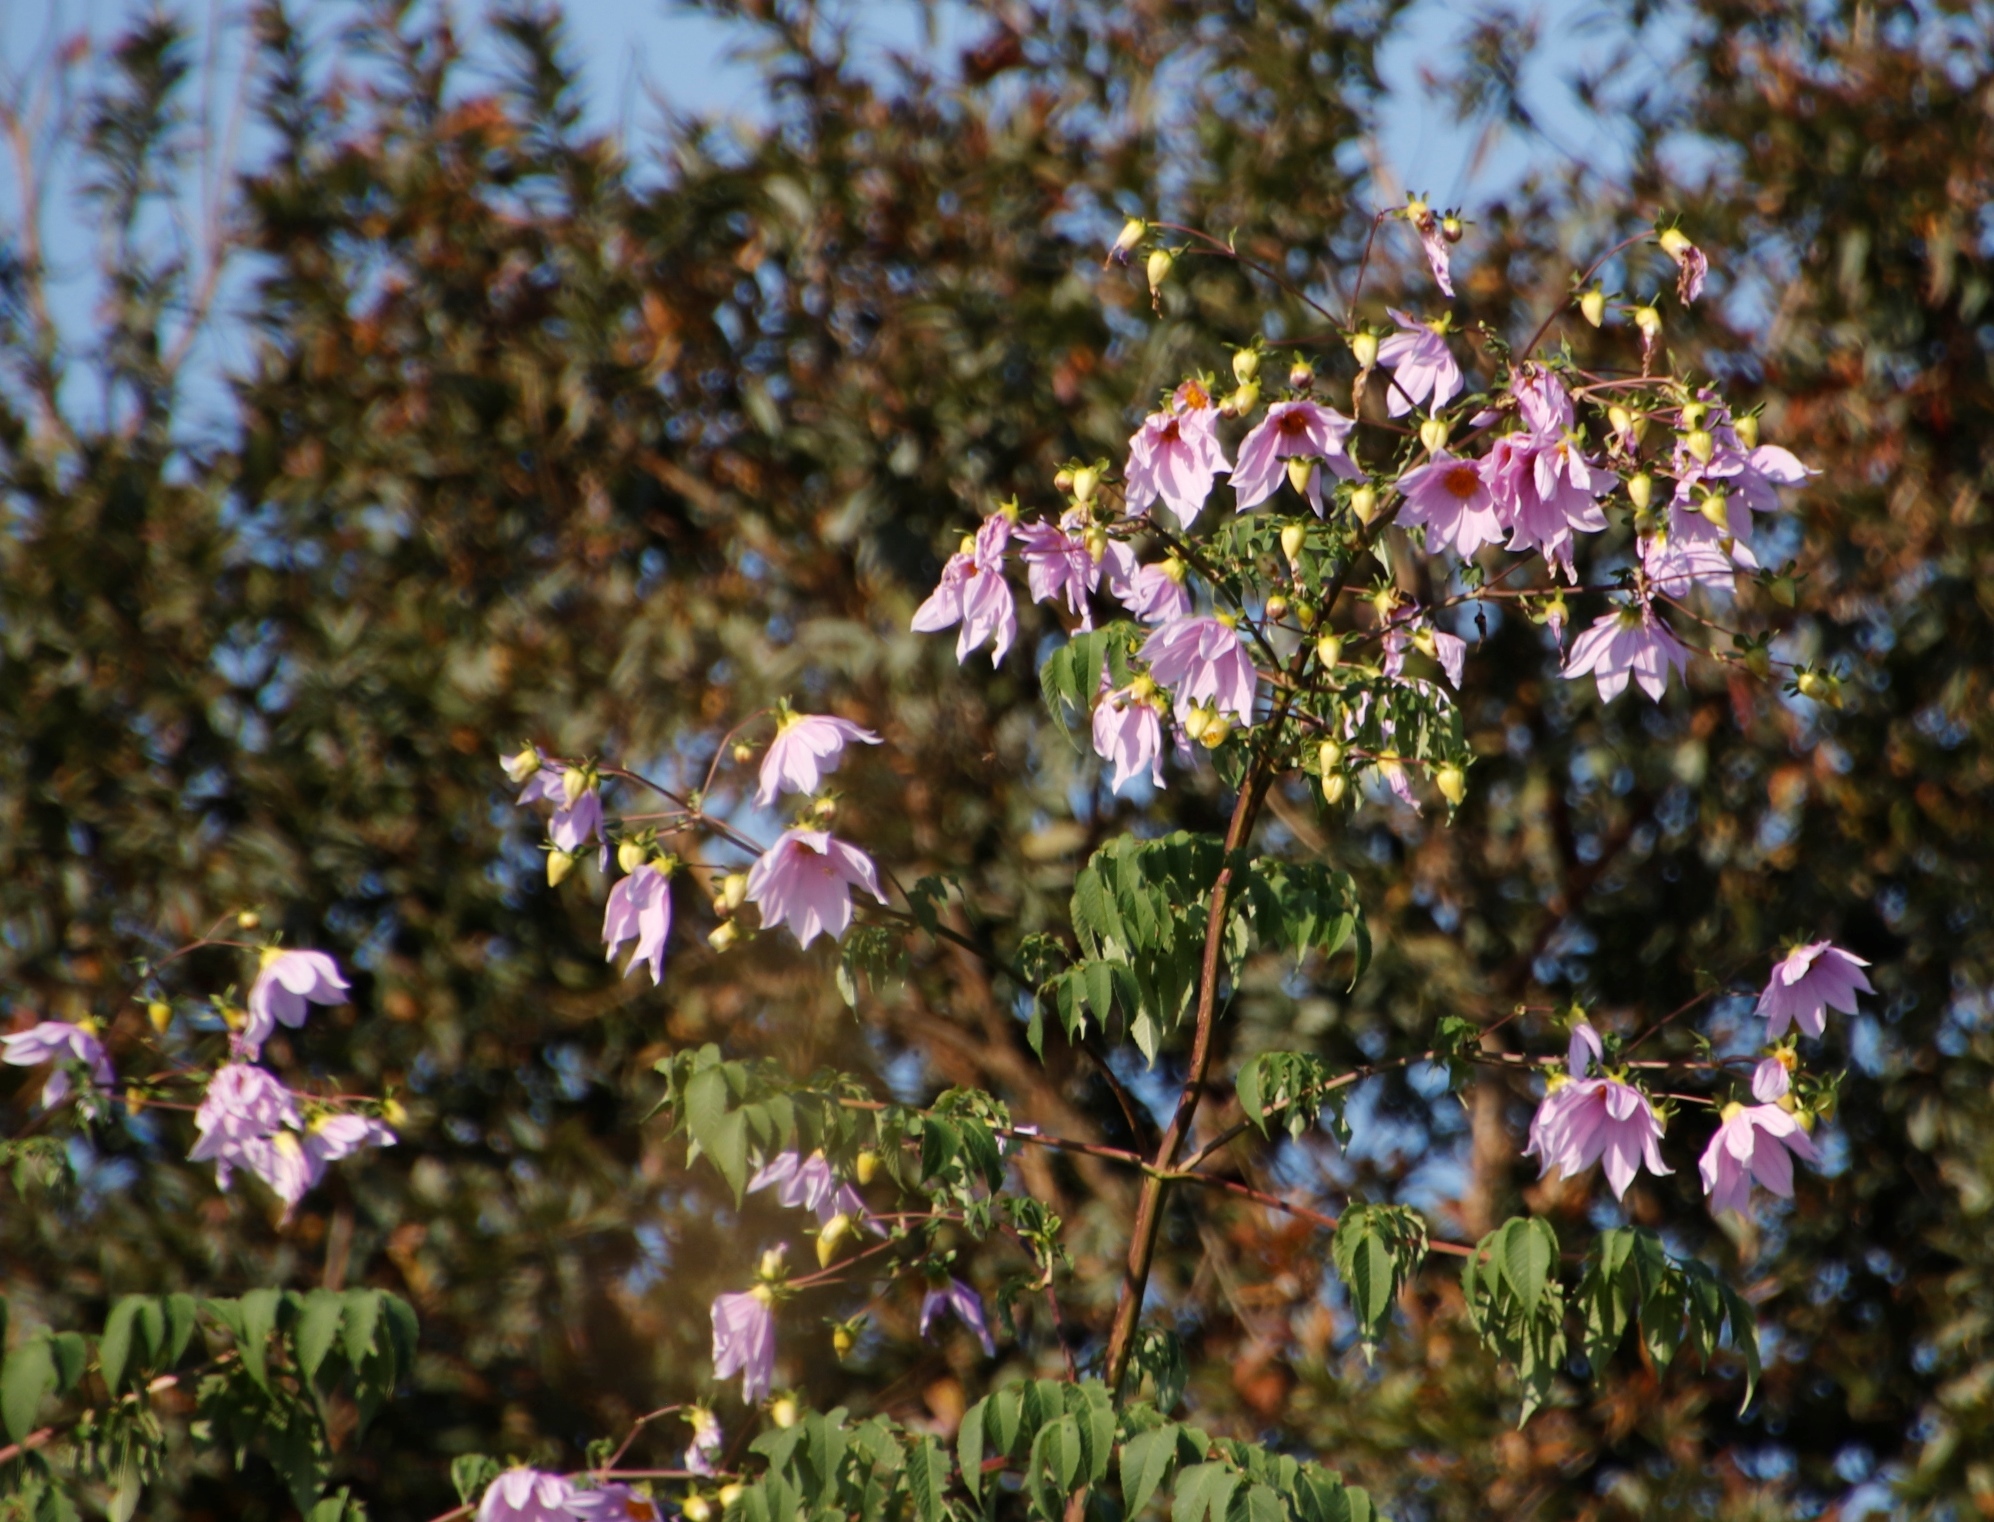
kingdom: Plantae
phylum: Tracheophyta
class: Magnoliopsida
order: Asterales
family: Asteraceae
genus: Dahlia
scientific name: Dahlia imperialis
